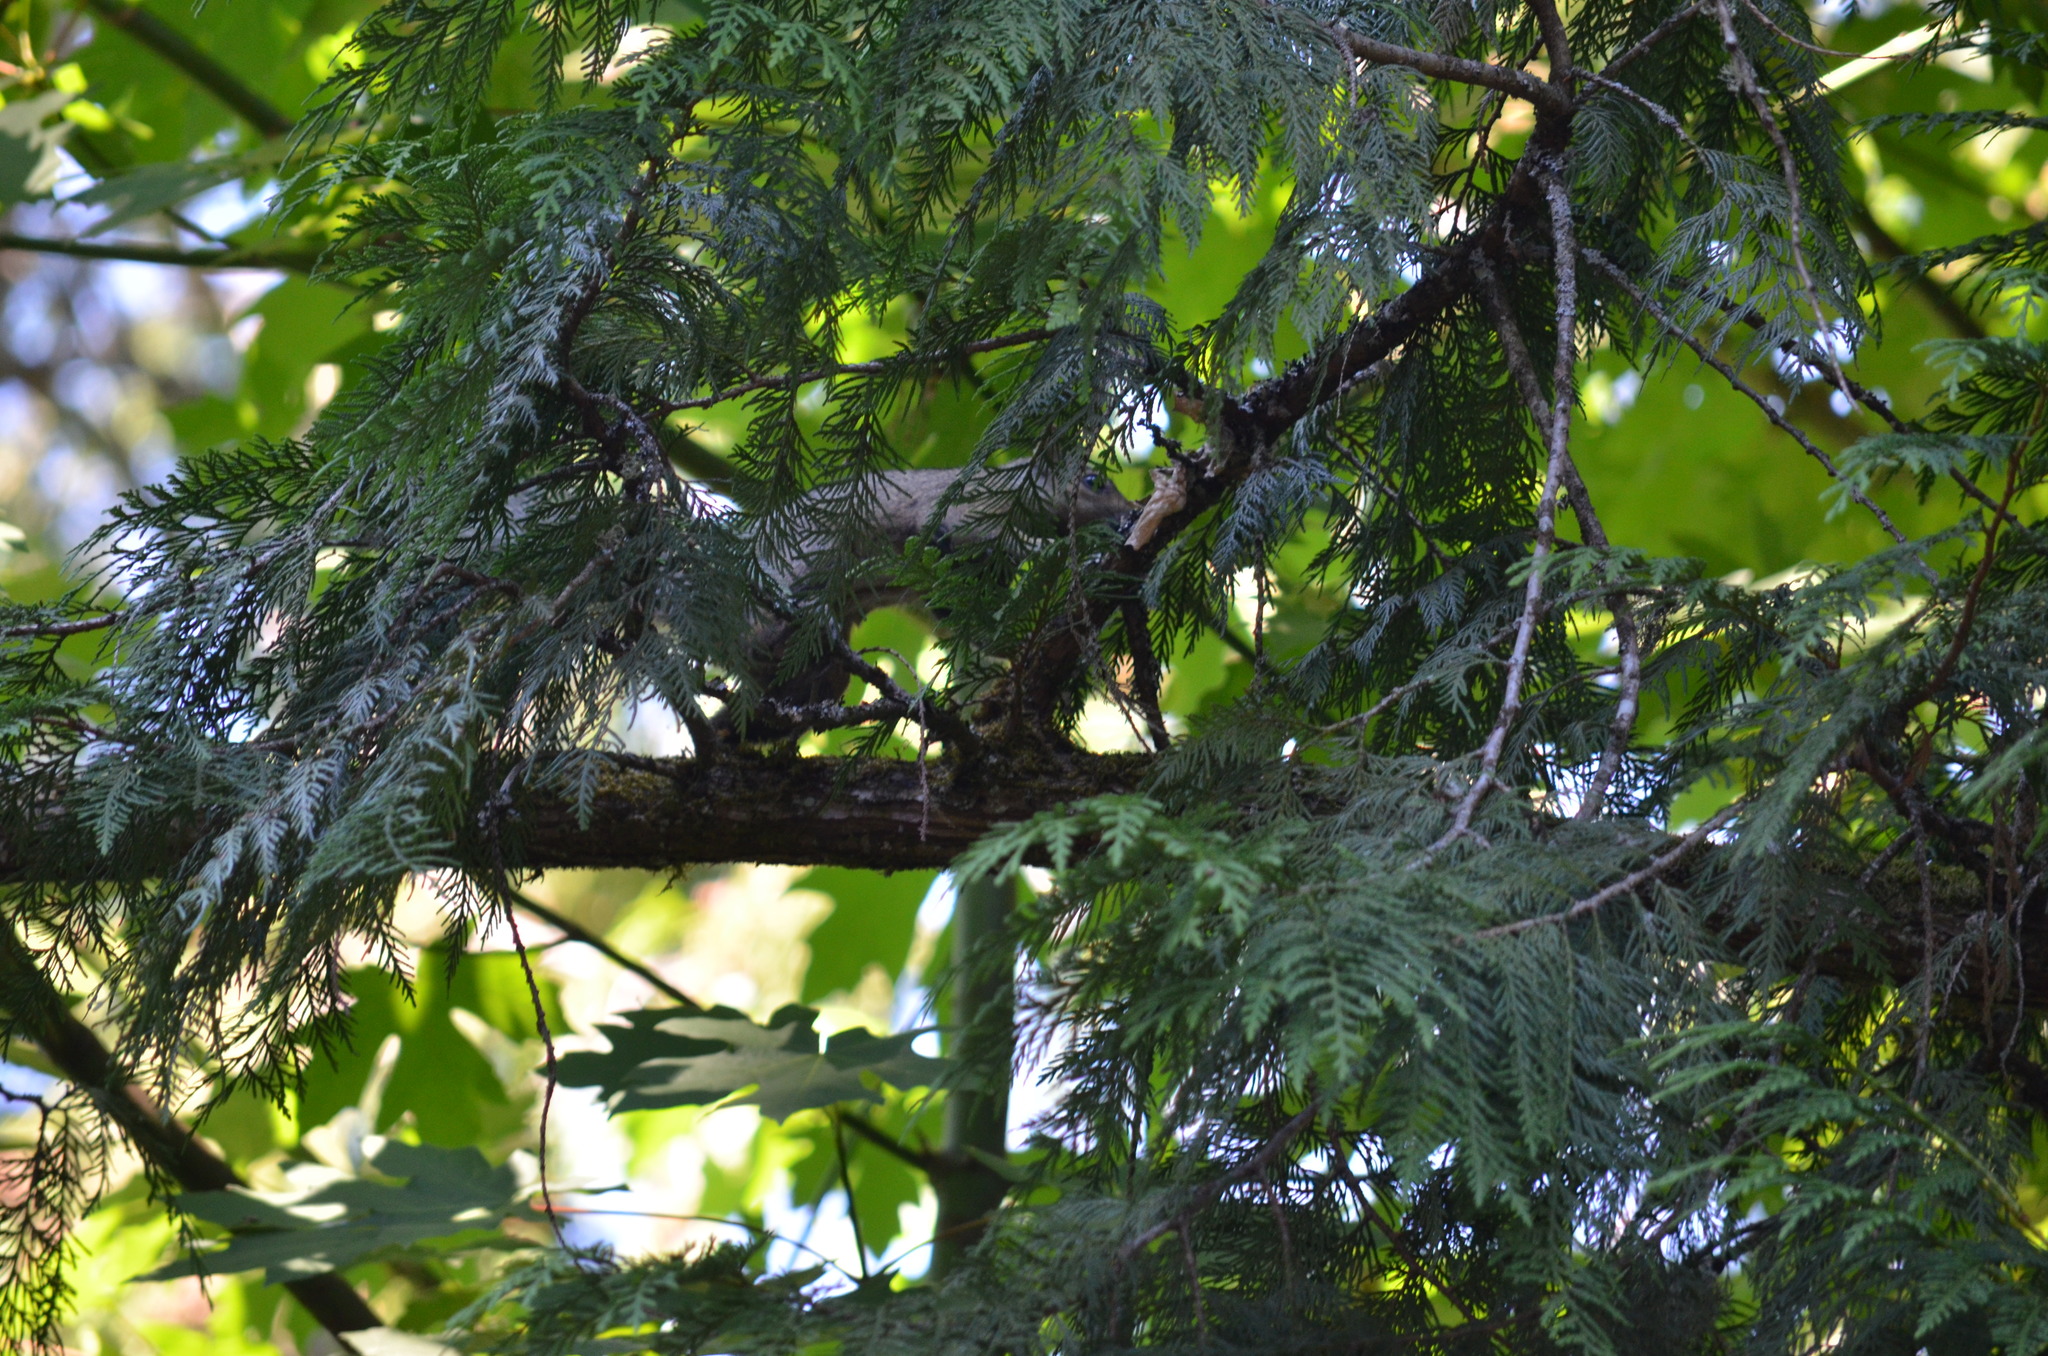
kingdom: Animalia
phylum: Chordata
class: Mammalia
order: Rodentia
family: Sciuridae
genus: Sciurus
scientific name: Sciurus carolinensis
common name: Eastern gray squirrel
